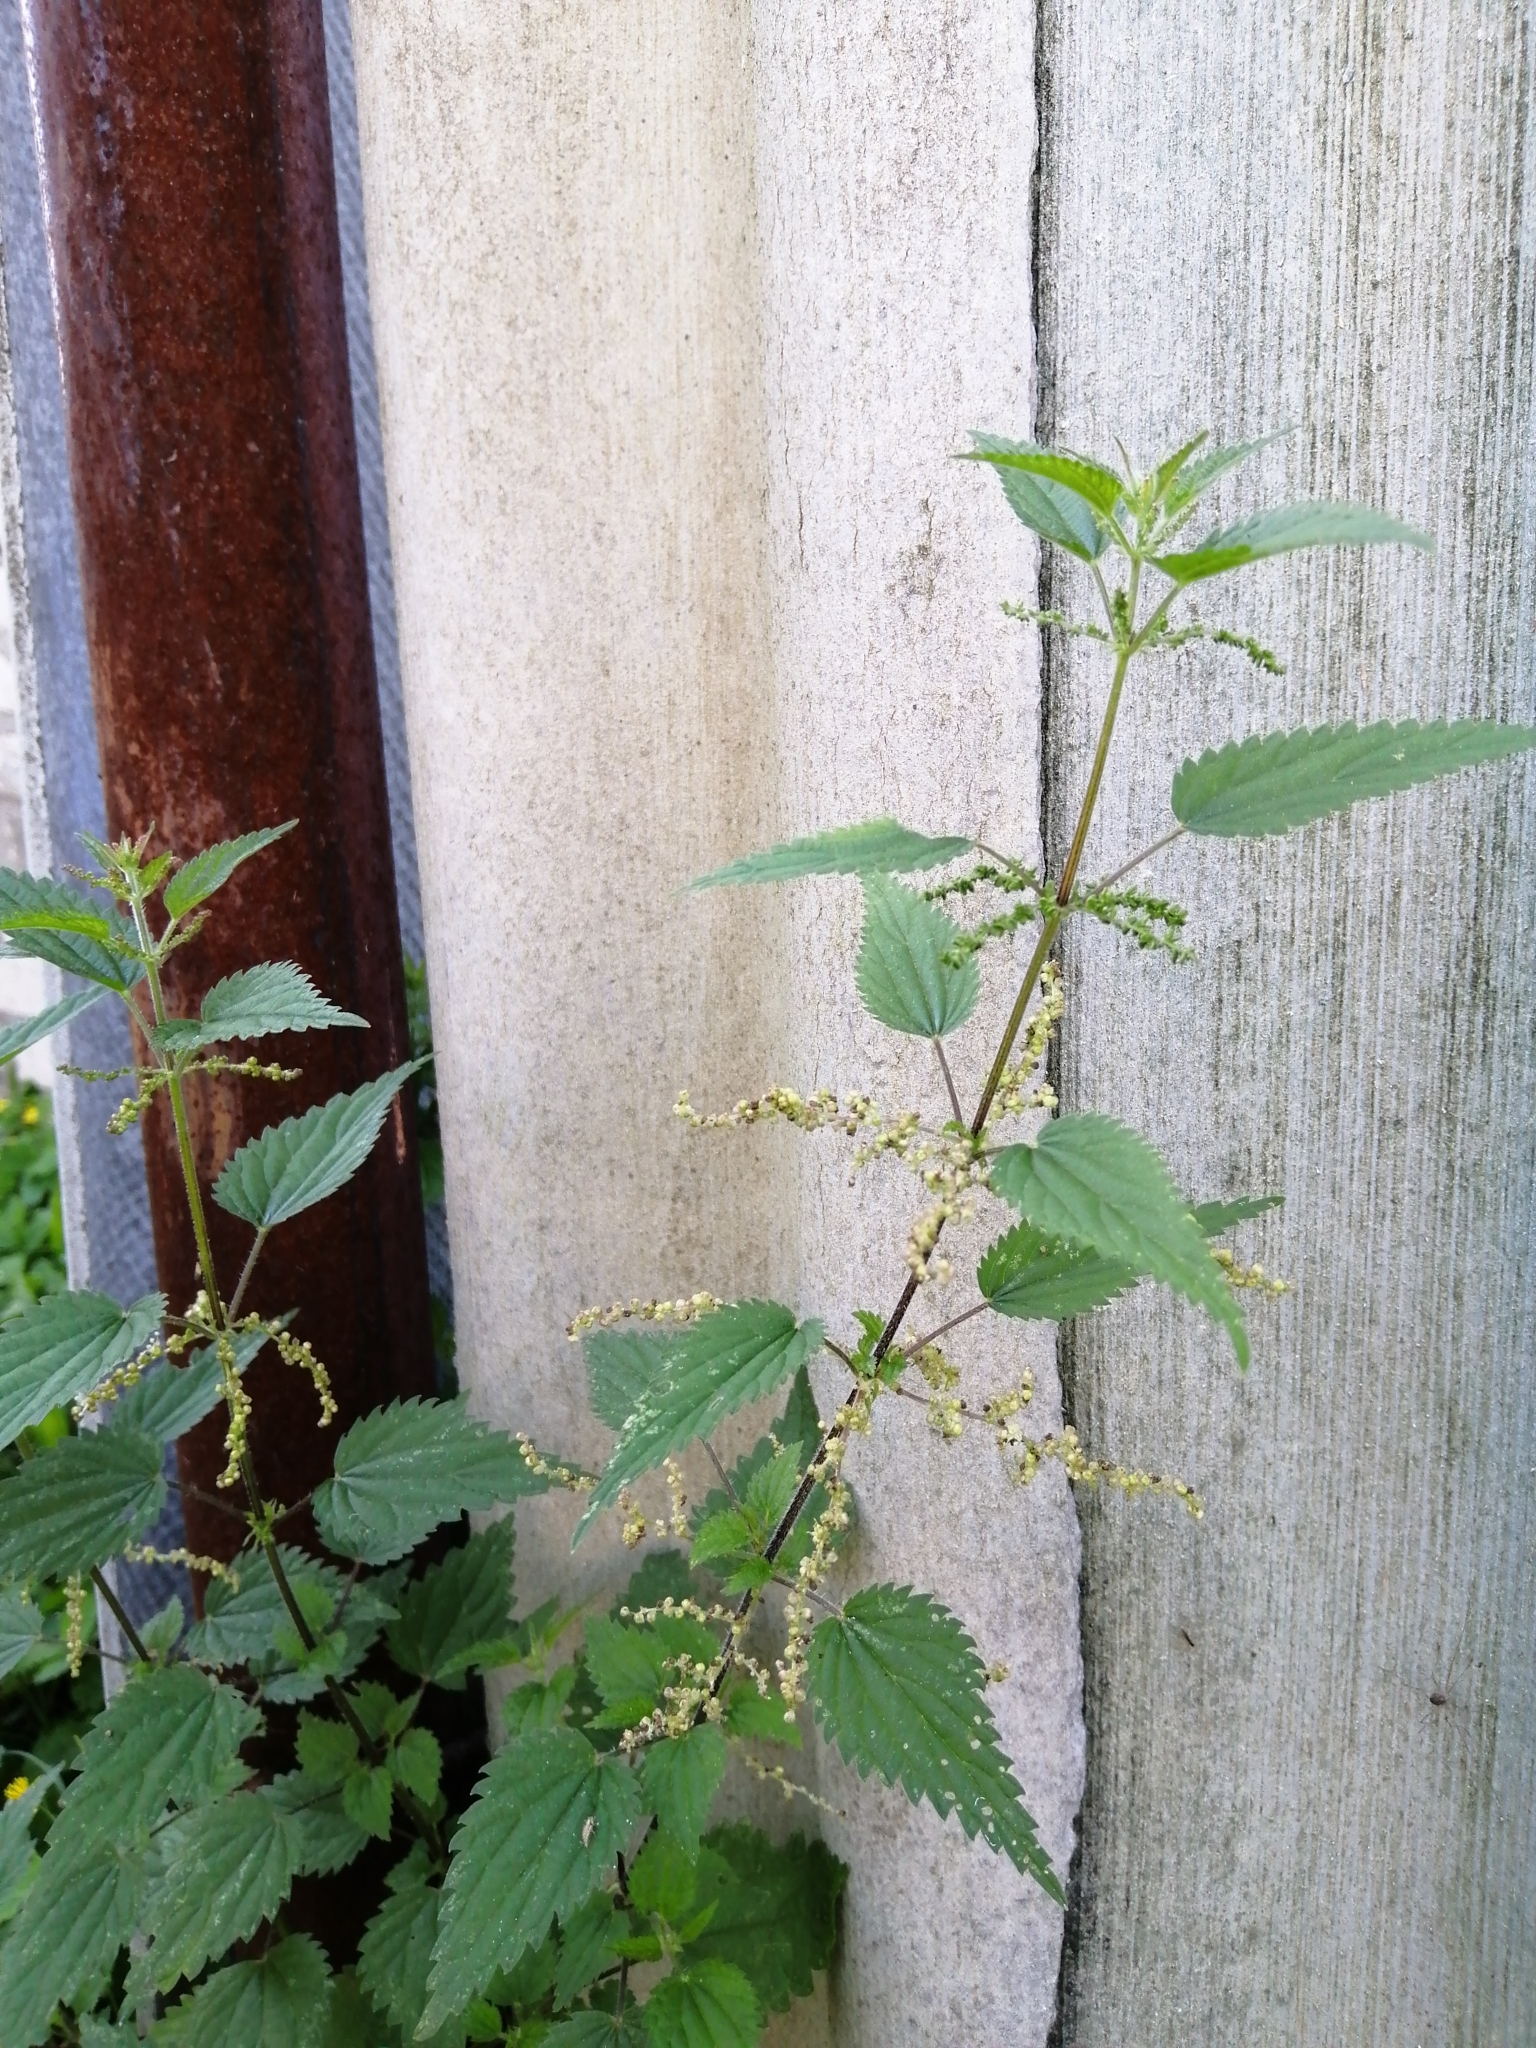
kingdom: Plantae
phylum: Tracheophyta
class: Magnoliopsida
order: Rosales
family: Urticaceae
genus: Urtica
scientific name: Urtica dioica
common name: Common nettle
